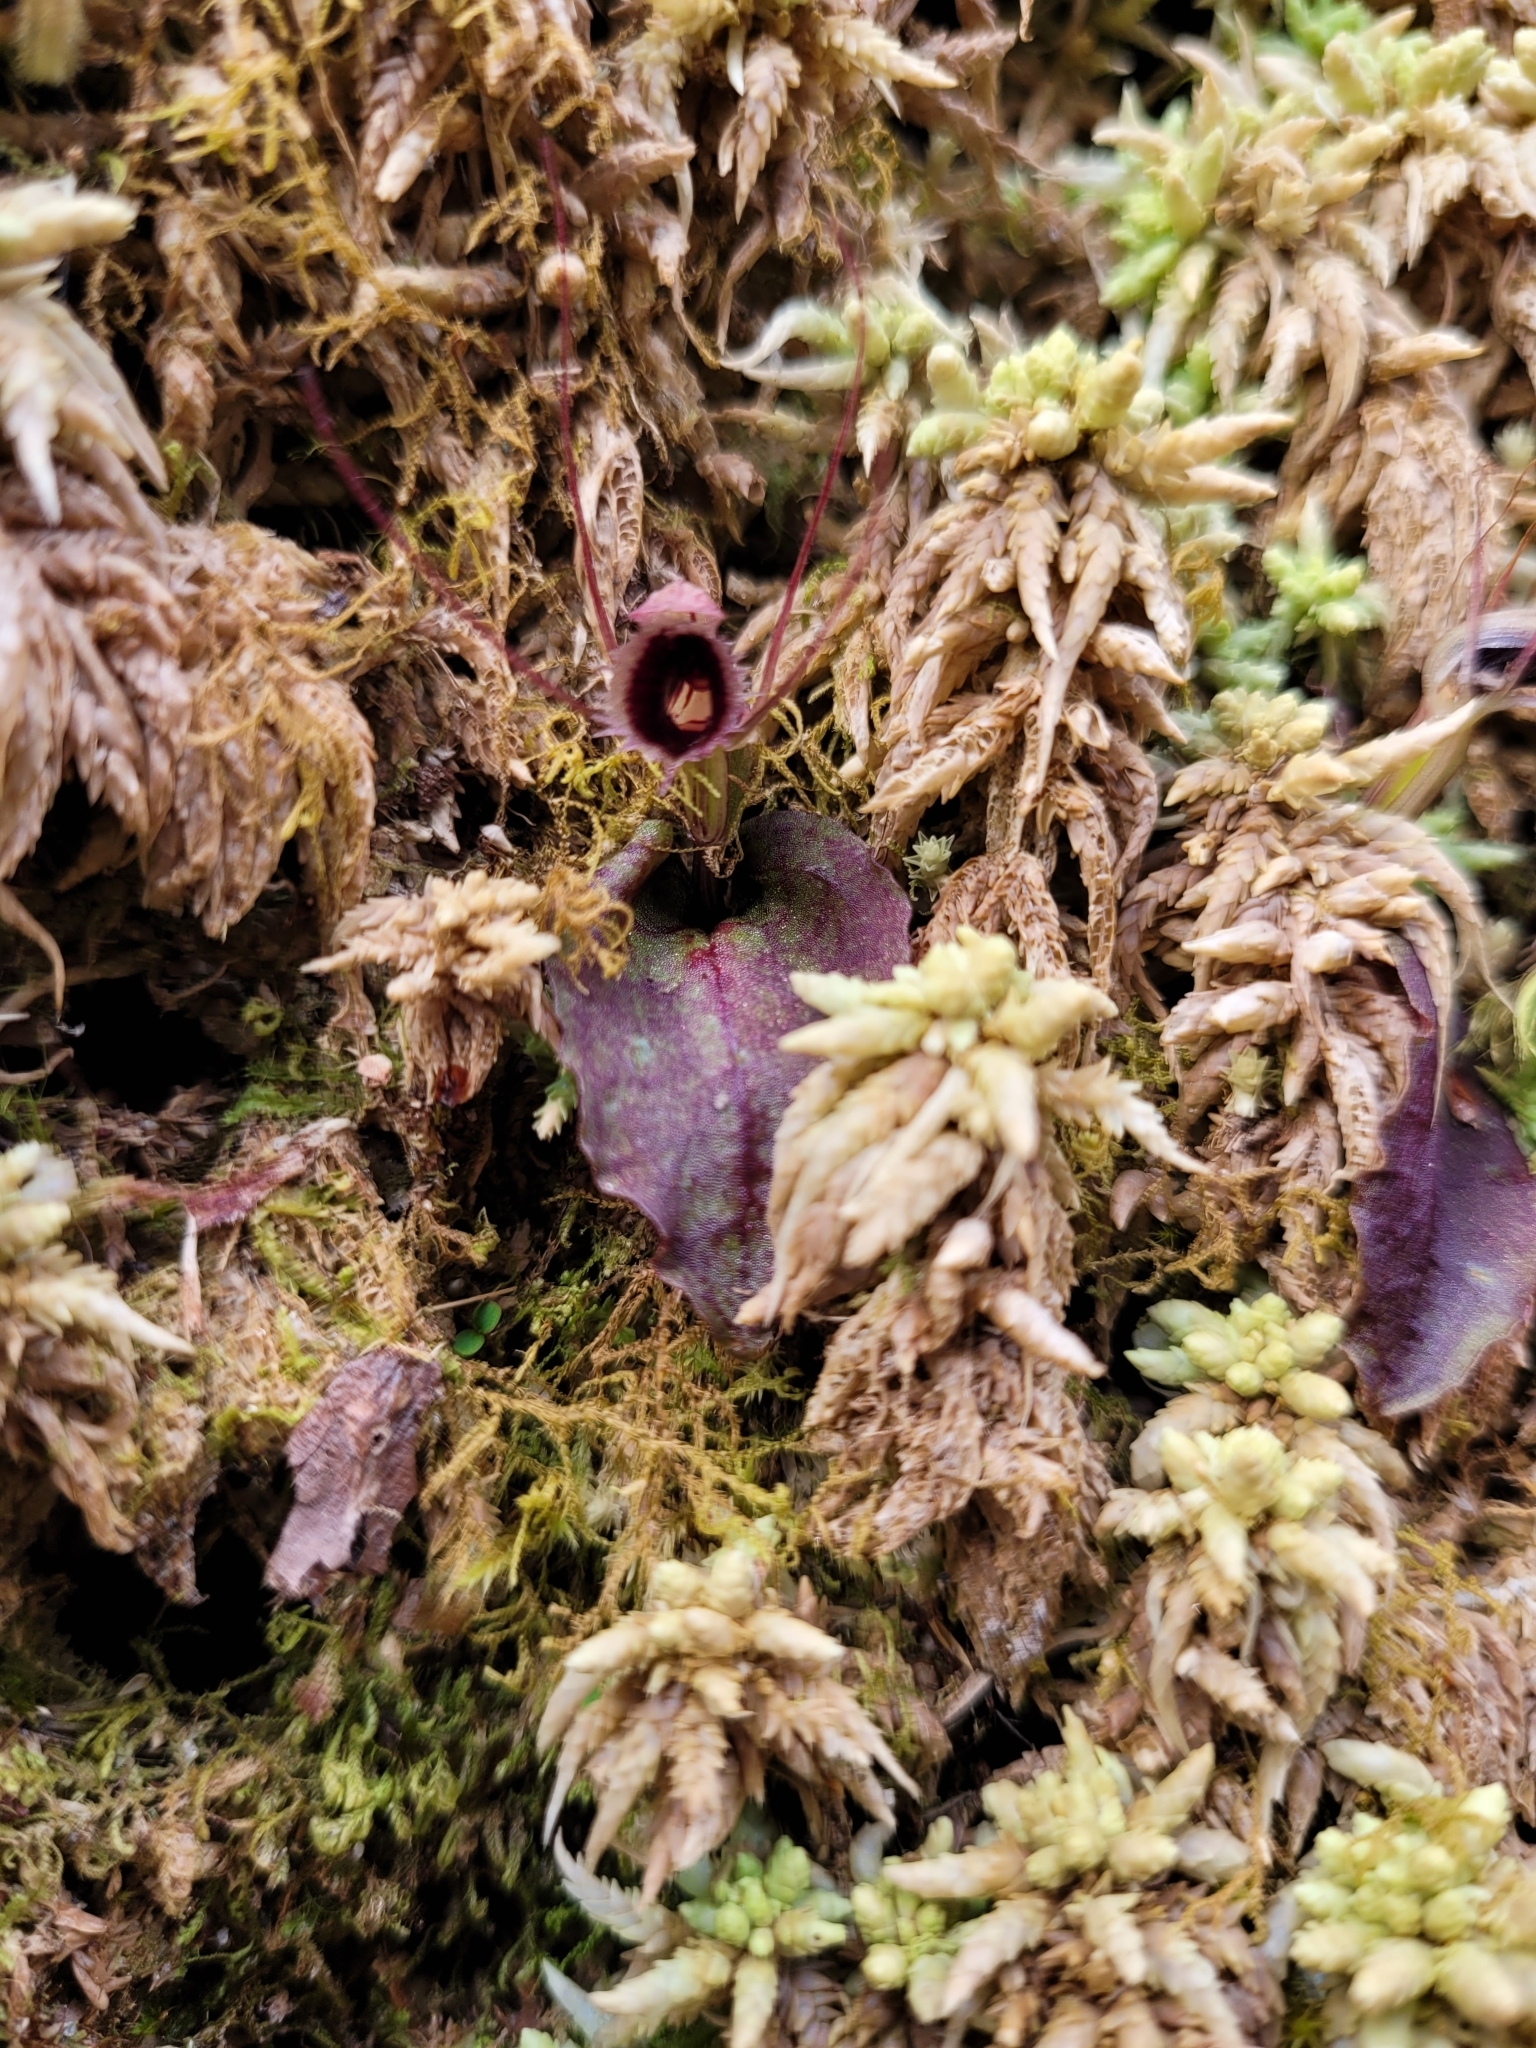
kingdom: Plantae
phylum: Tracheophyta
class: Liliopsida
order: Asparagales
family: Orchidaceae
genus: Corybas
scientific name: Corybas oblongus
